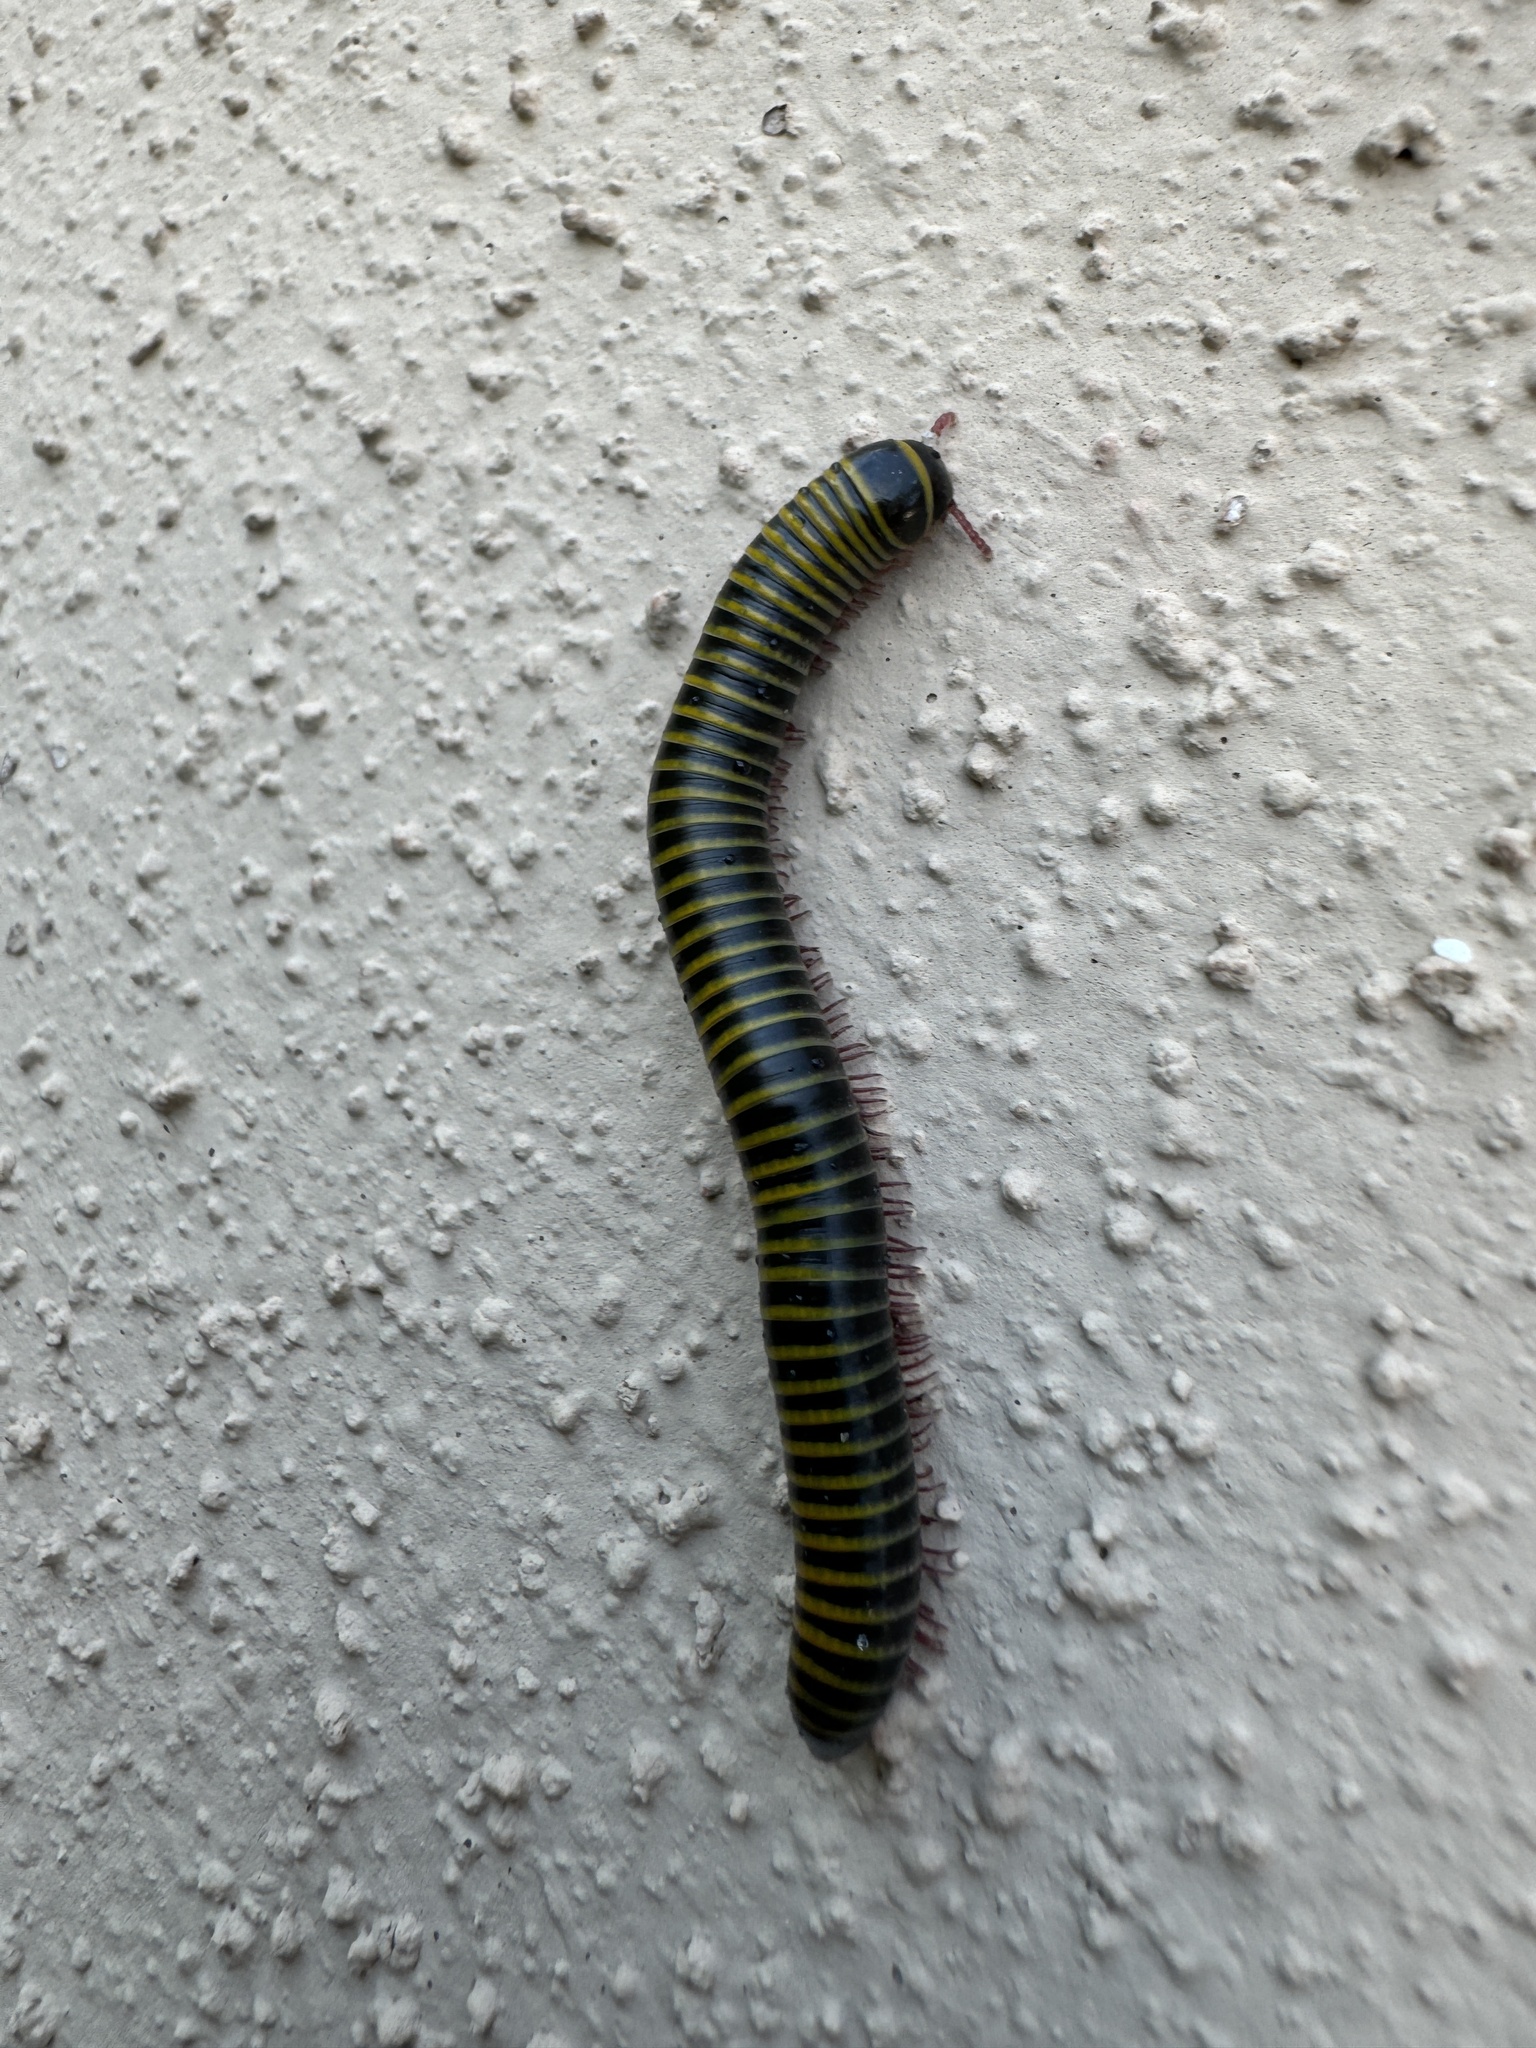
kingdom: Animalia
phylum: Arthropoda
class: Diplopoda
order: Spirobolida
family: Rhinocricidae
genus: Anadenobolus
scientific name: Anadenobolus monilicornis
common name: Caribbean millipede
